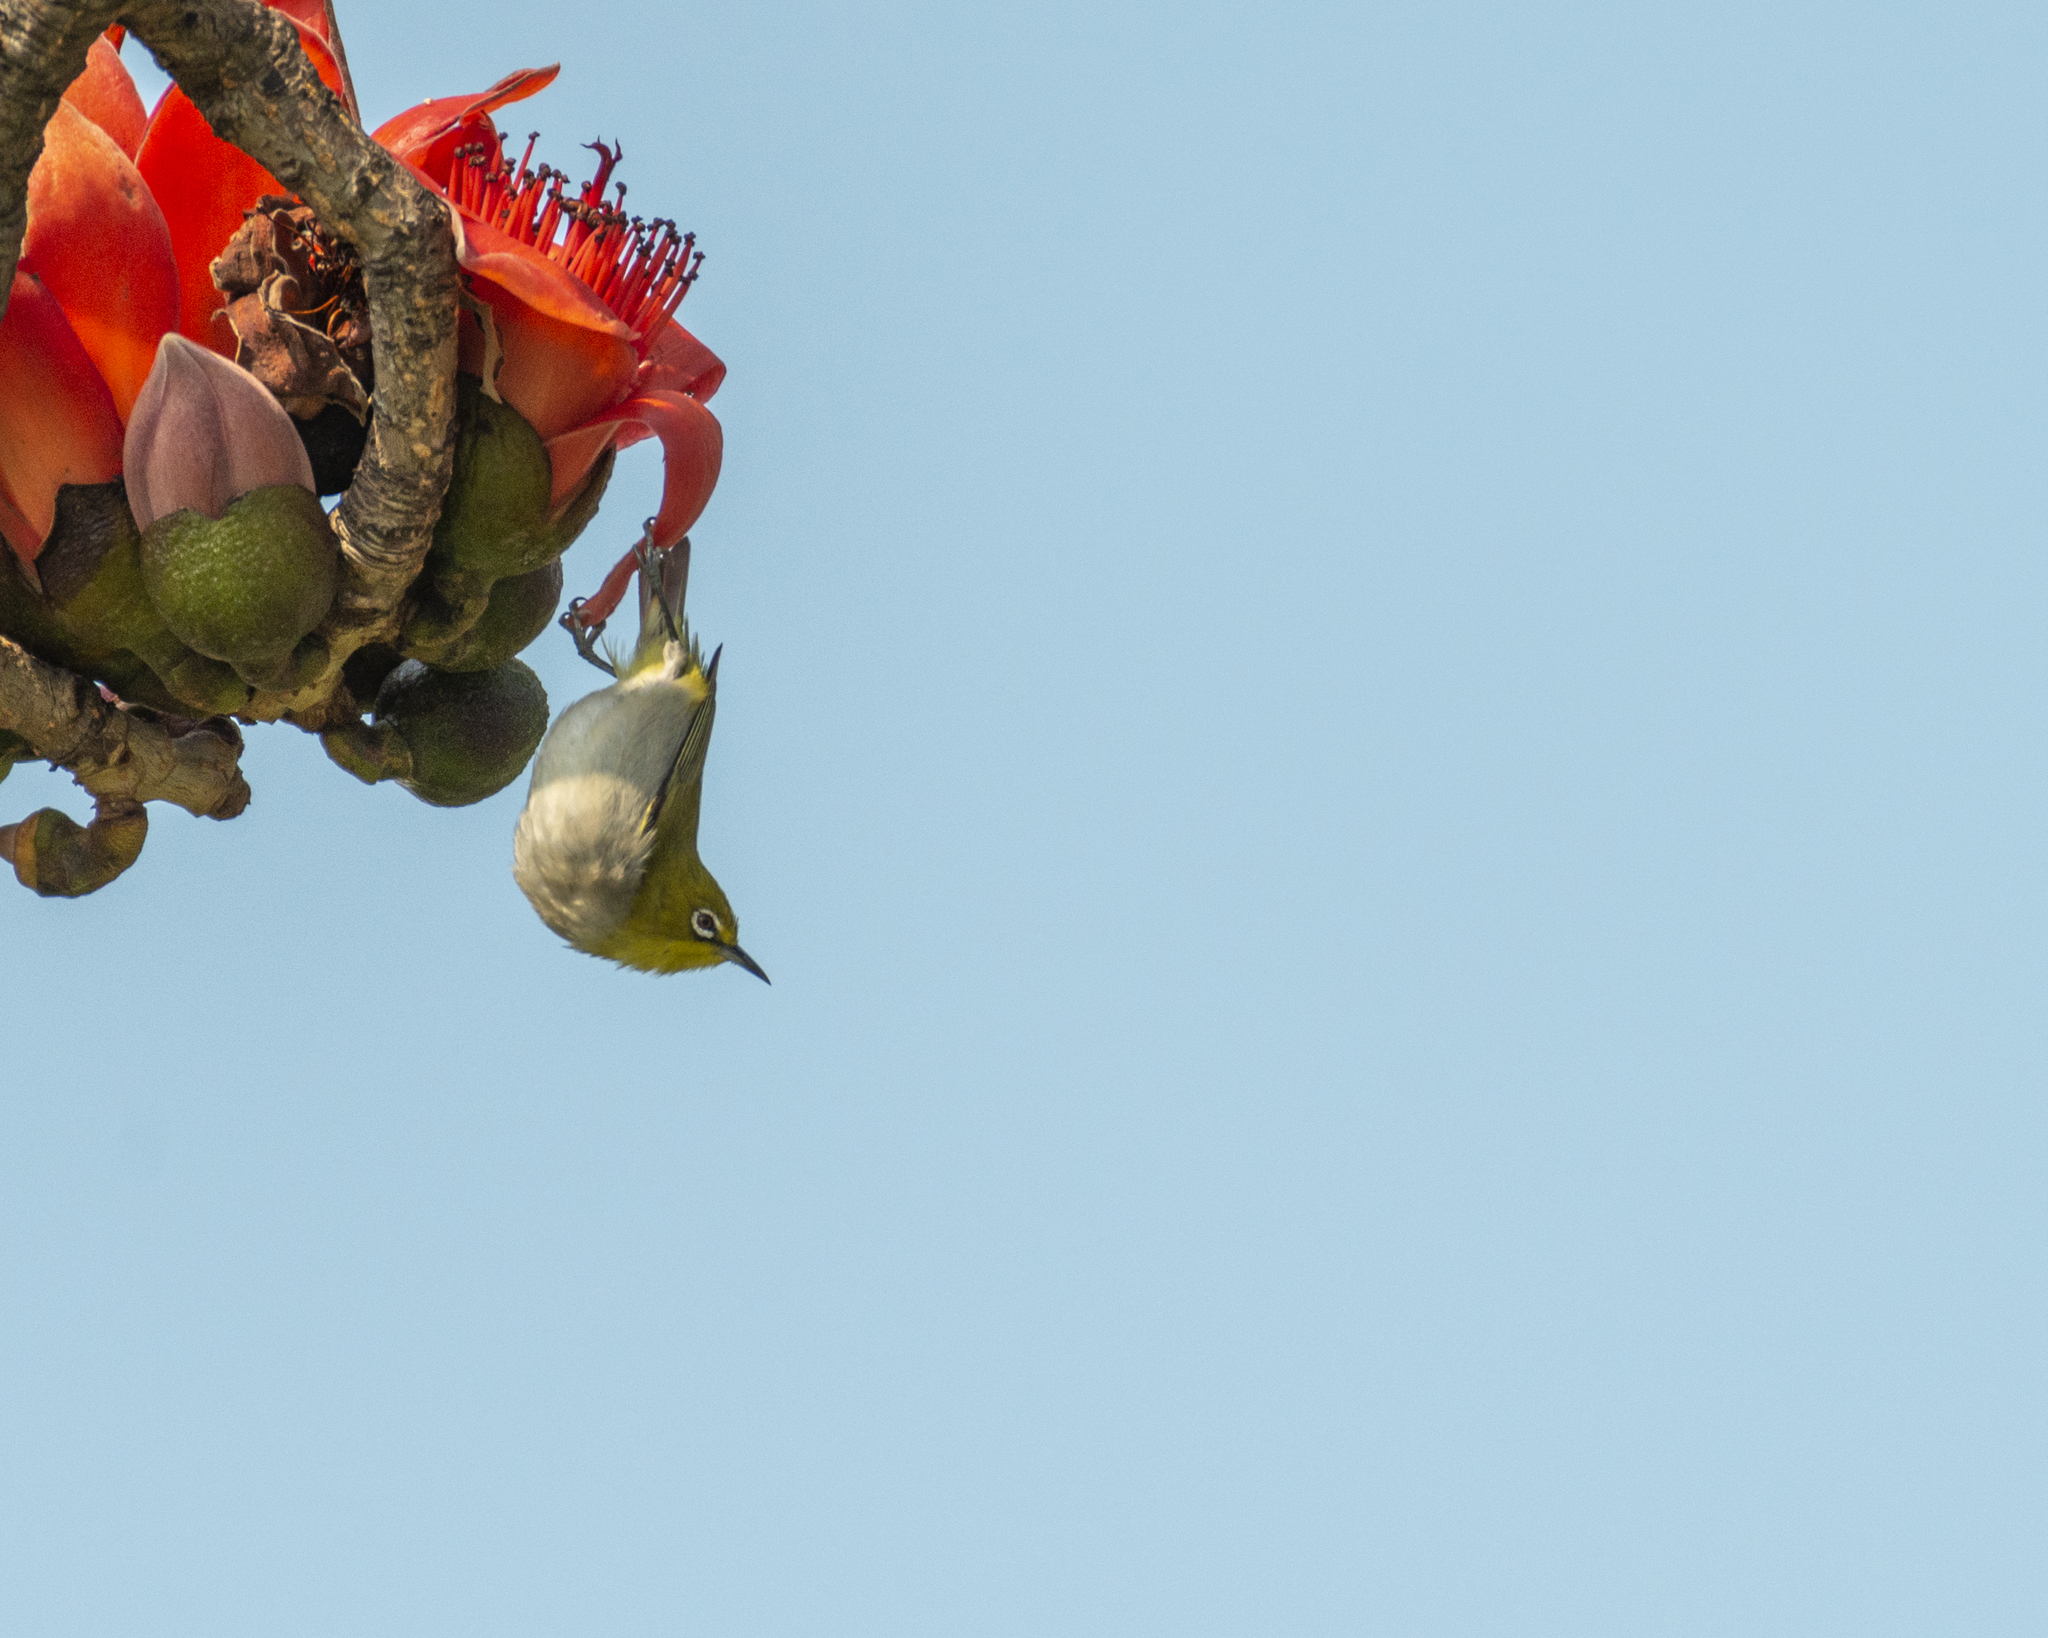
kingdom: Animalia
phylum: Chordata
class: Aves
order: Passeriformes
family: Zosteropidae
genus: Zosterops
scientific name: Zosterops simplex
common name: Swinhoe's white-eye
